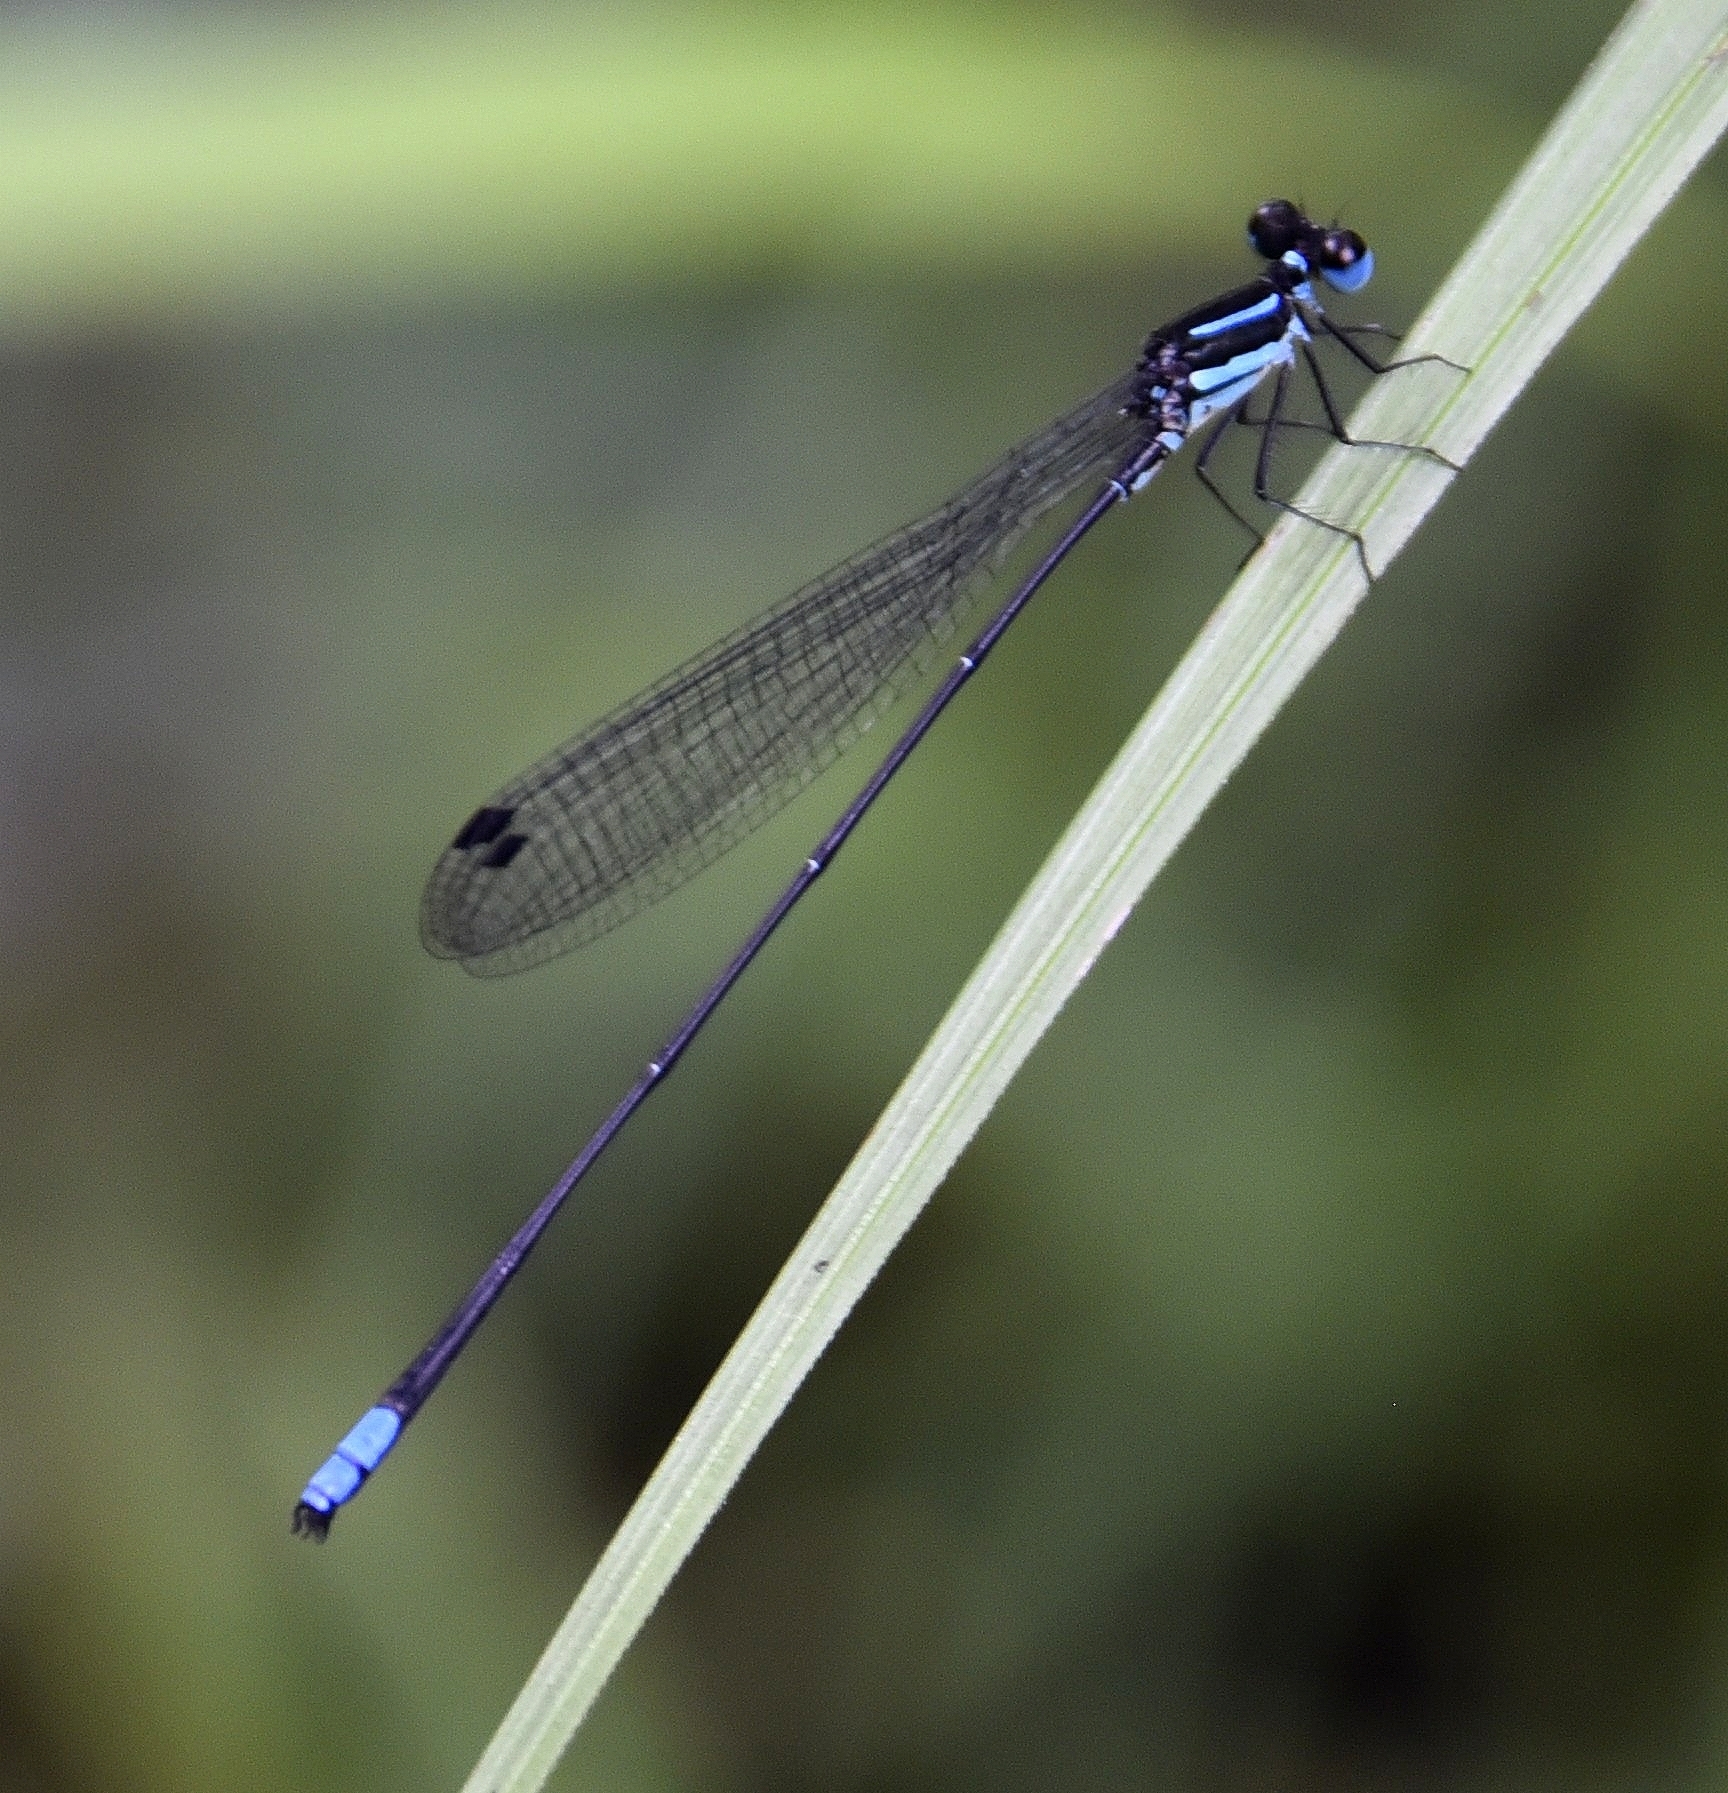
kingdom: Animalia
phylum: Arthropoda
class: Insecta
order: Odonata
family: Platycnemididae
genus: Melanoneura
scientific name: Melanoneura bilineata
